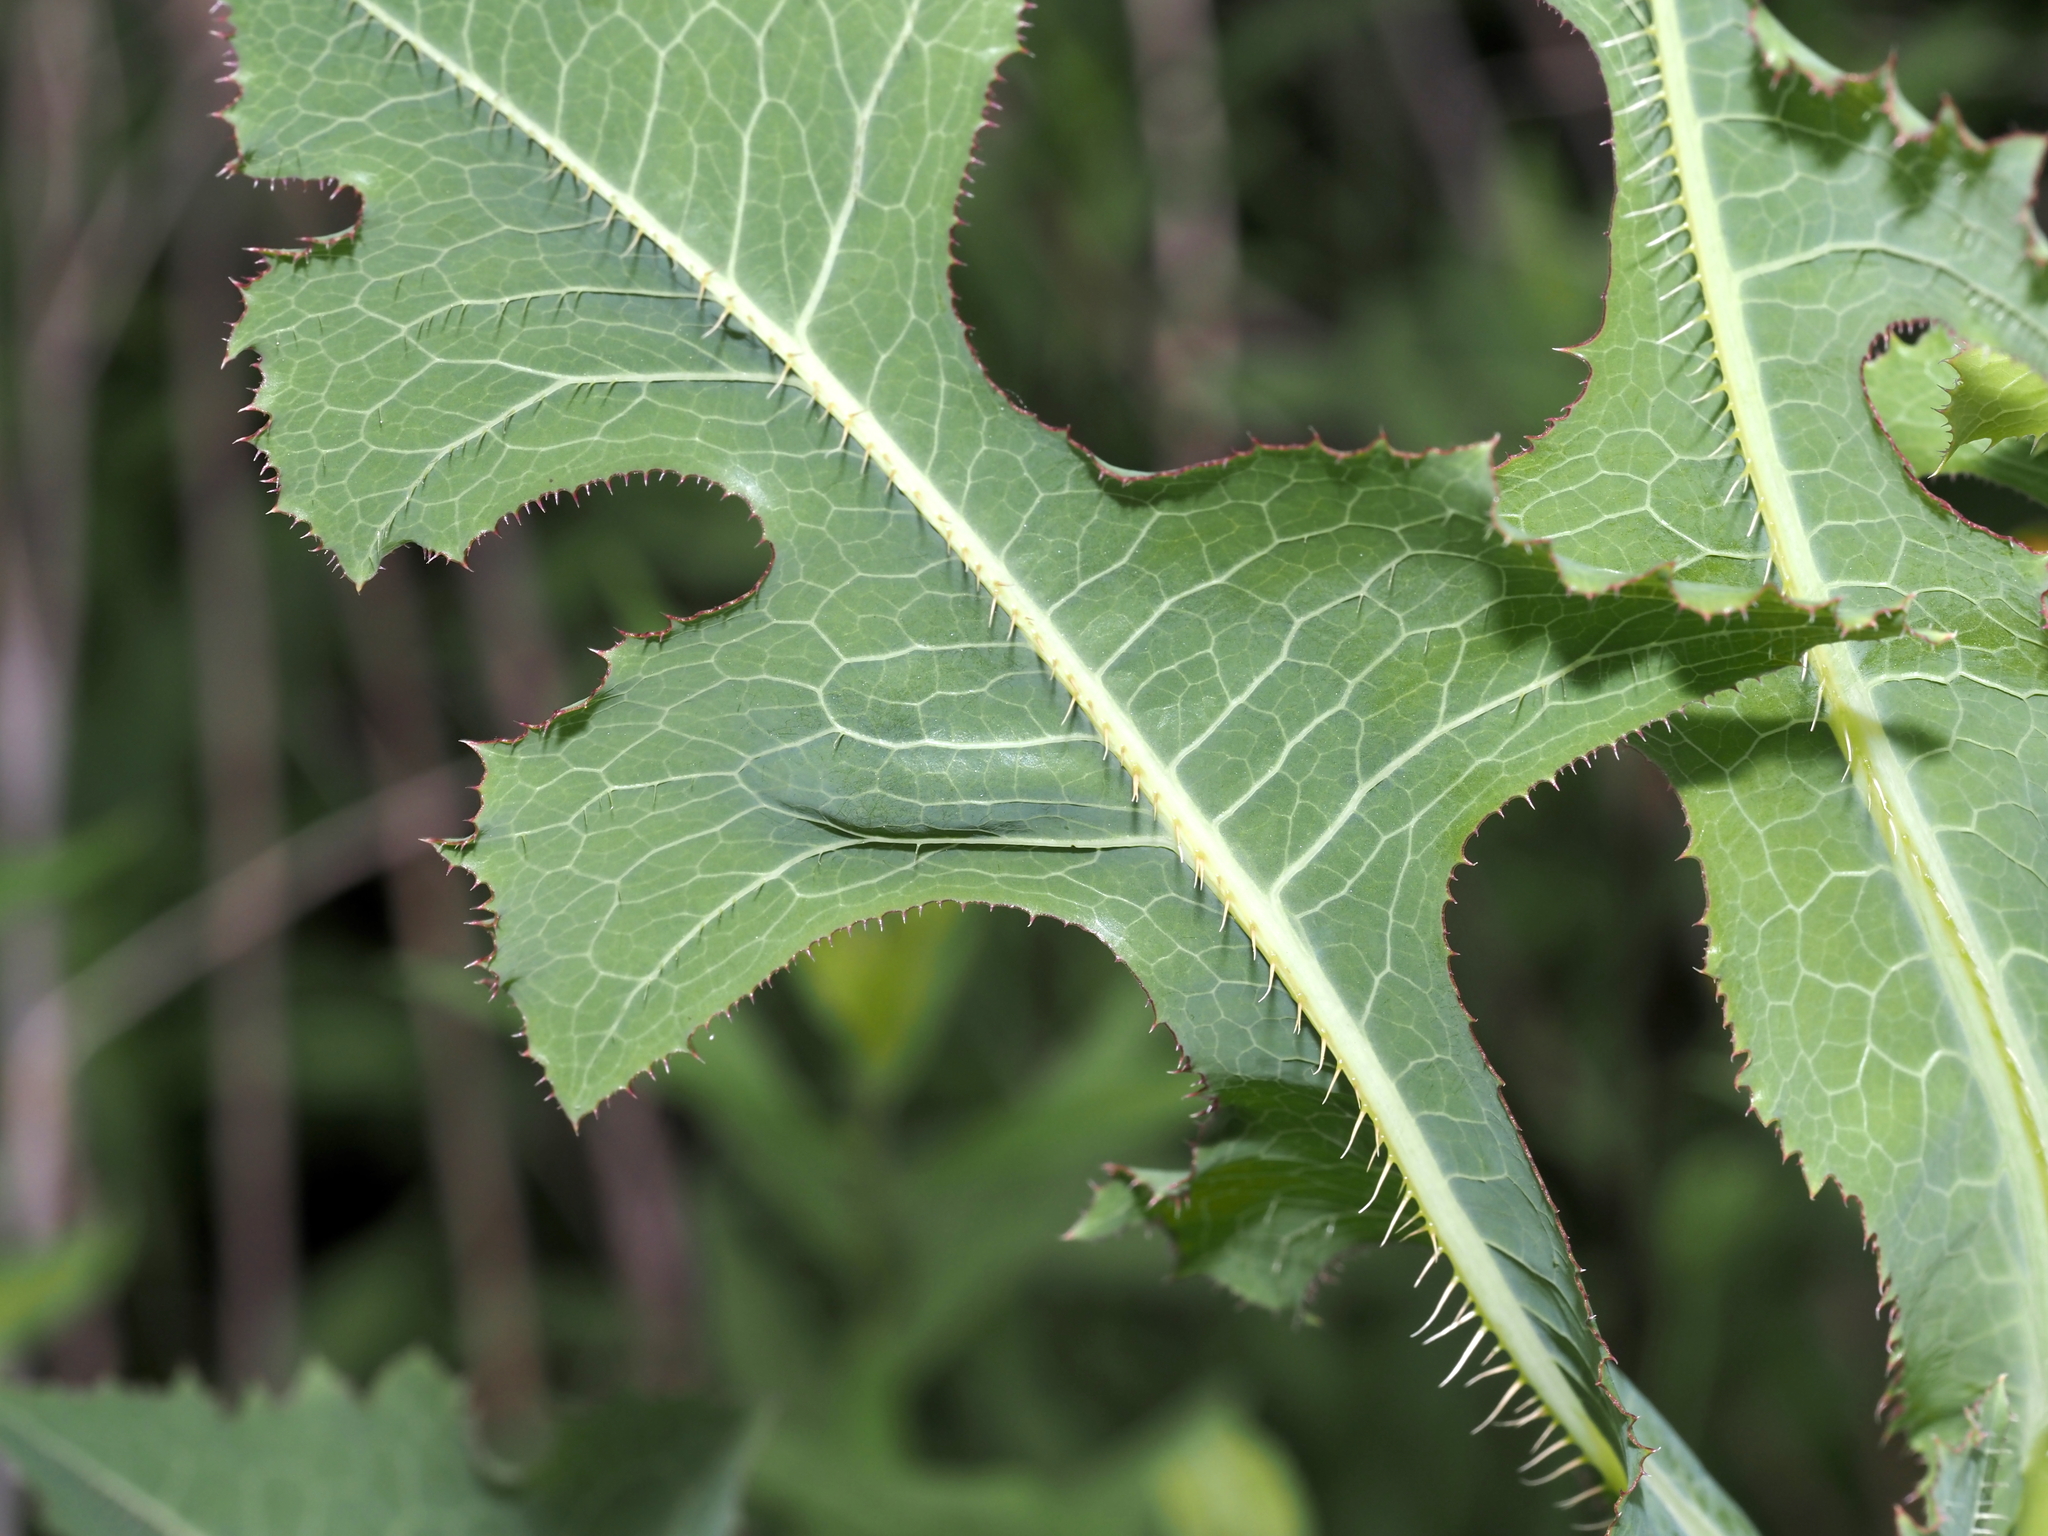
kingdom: Plantae
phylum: Tracheophyta
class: Magnoliopsida
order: Asterales
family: Asteraceae
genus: Lactuca
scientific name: Lactuca serriola
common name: Prickly lettuce
